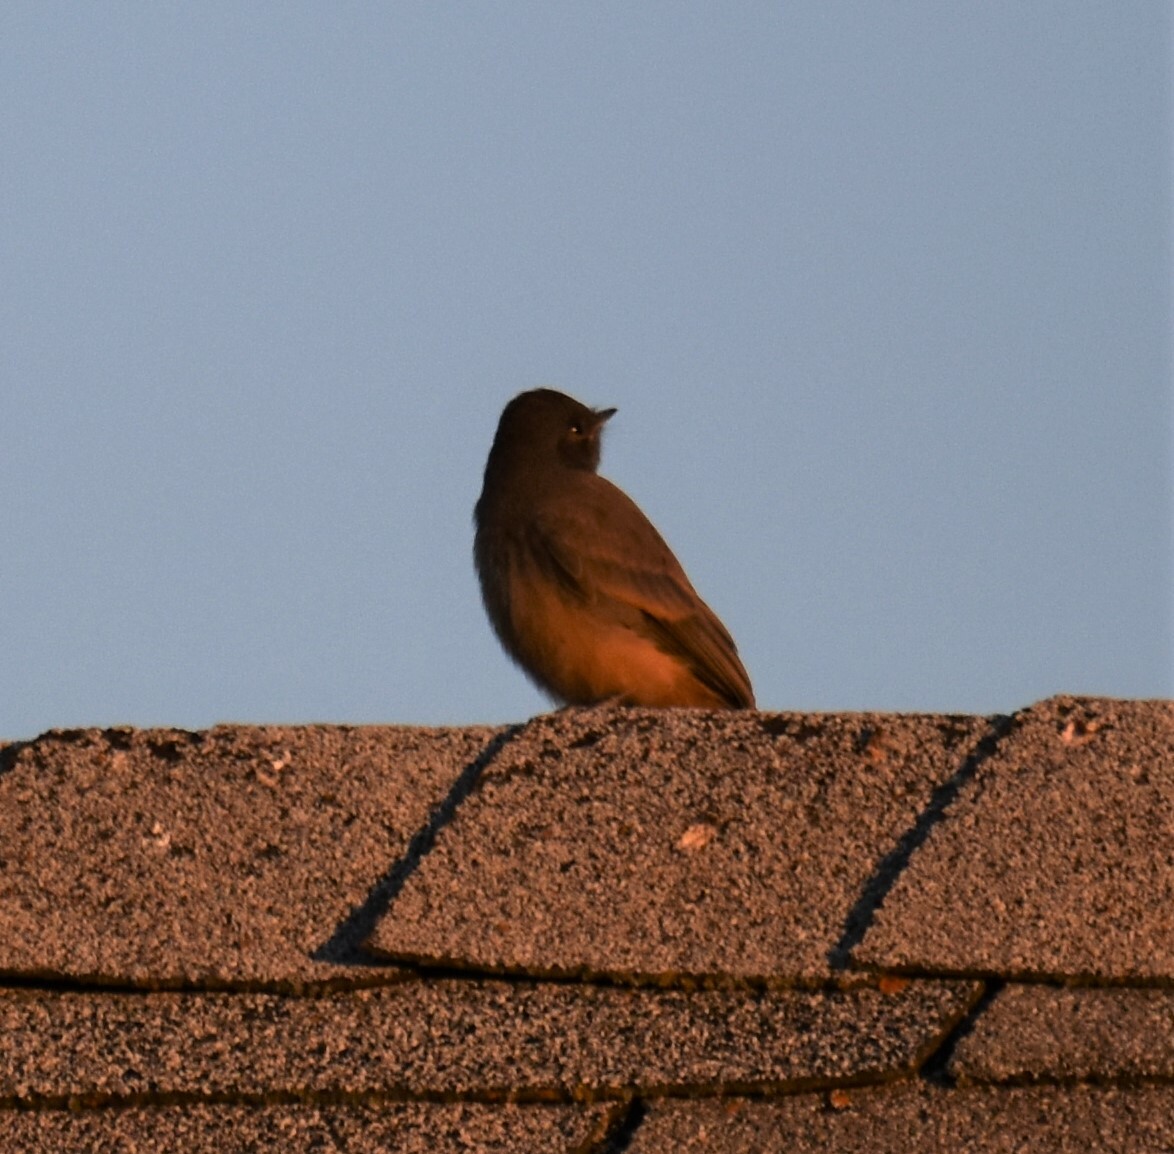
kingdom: Animalia
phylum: Chordata
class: Aves
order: Passeriformes
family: Tyrannidae
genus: Sayornis
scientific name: Sayornis saya
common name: Say's phoebe
